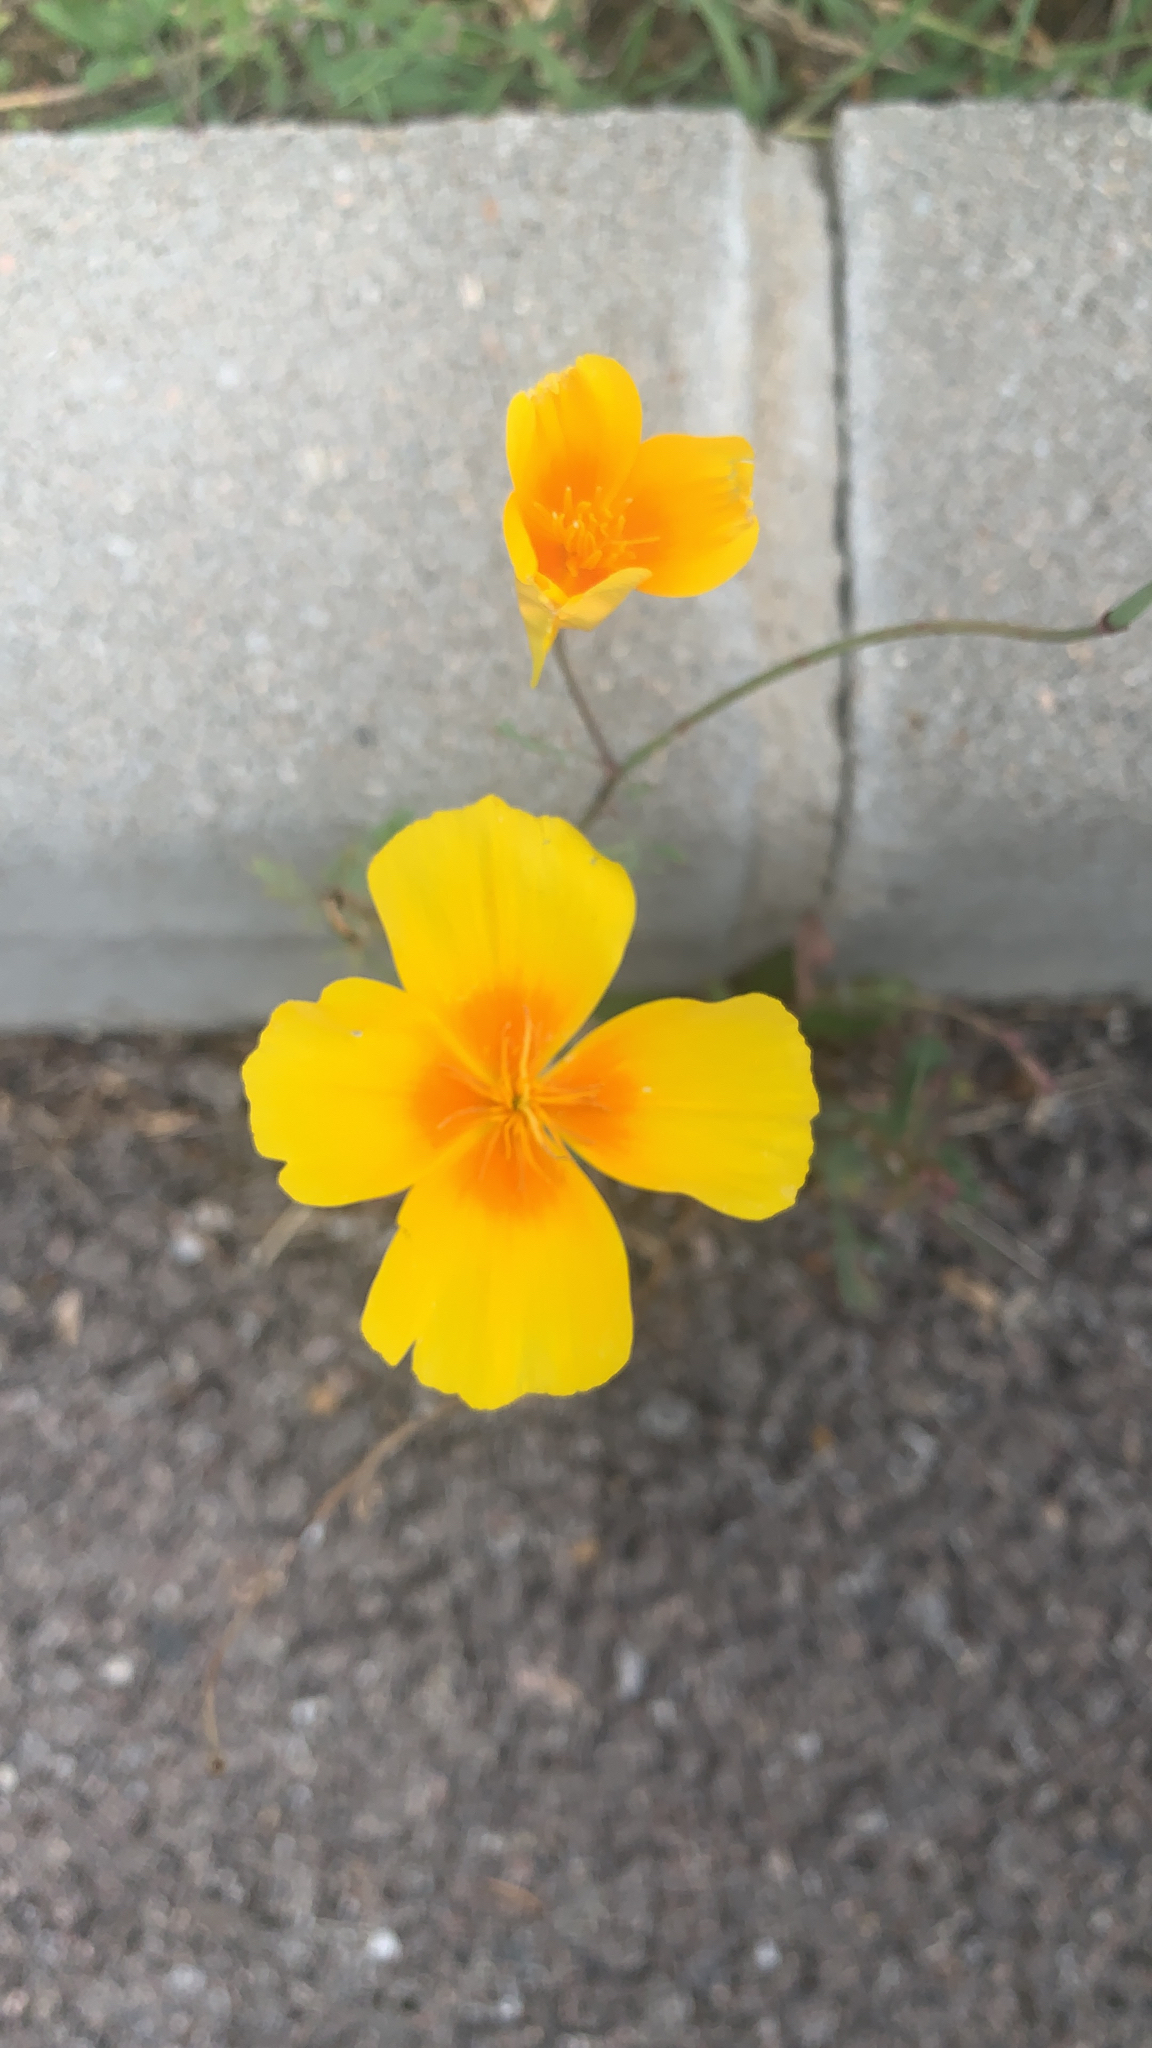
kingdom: Plantae
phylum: Tracheophyta
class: Magnoliopsida
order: Ranunculales
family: Papaveraceae
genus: Eschscholzia
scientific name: Eschscholzia californica
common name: California poppy
